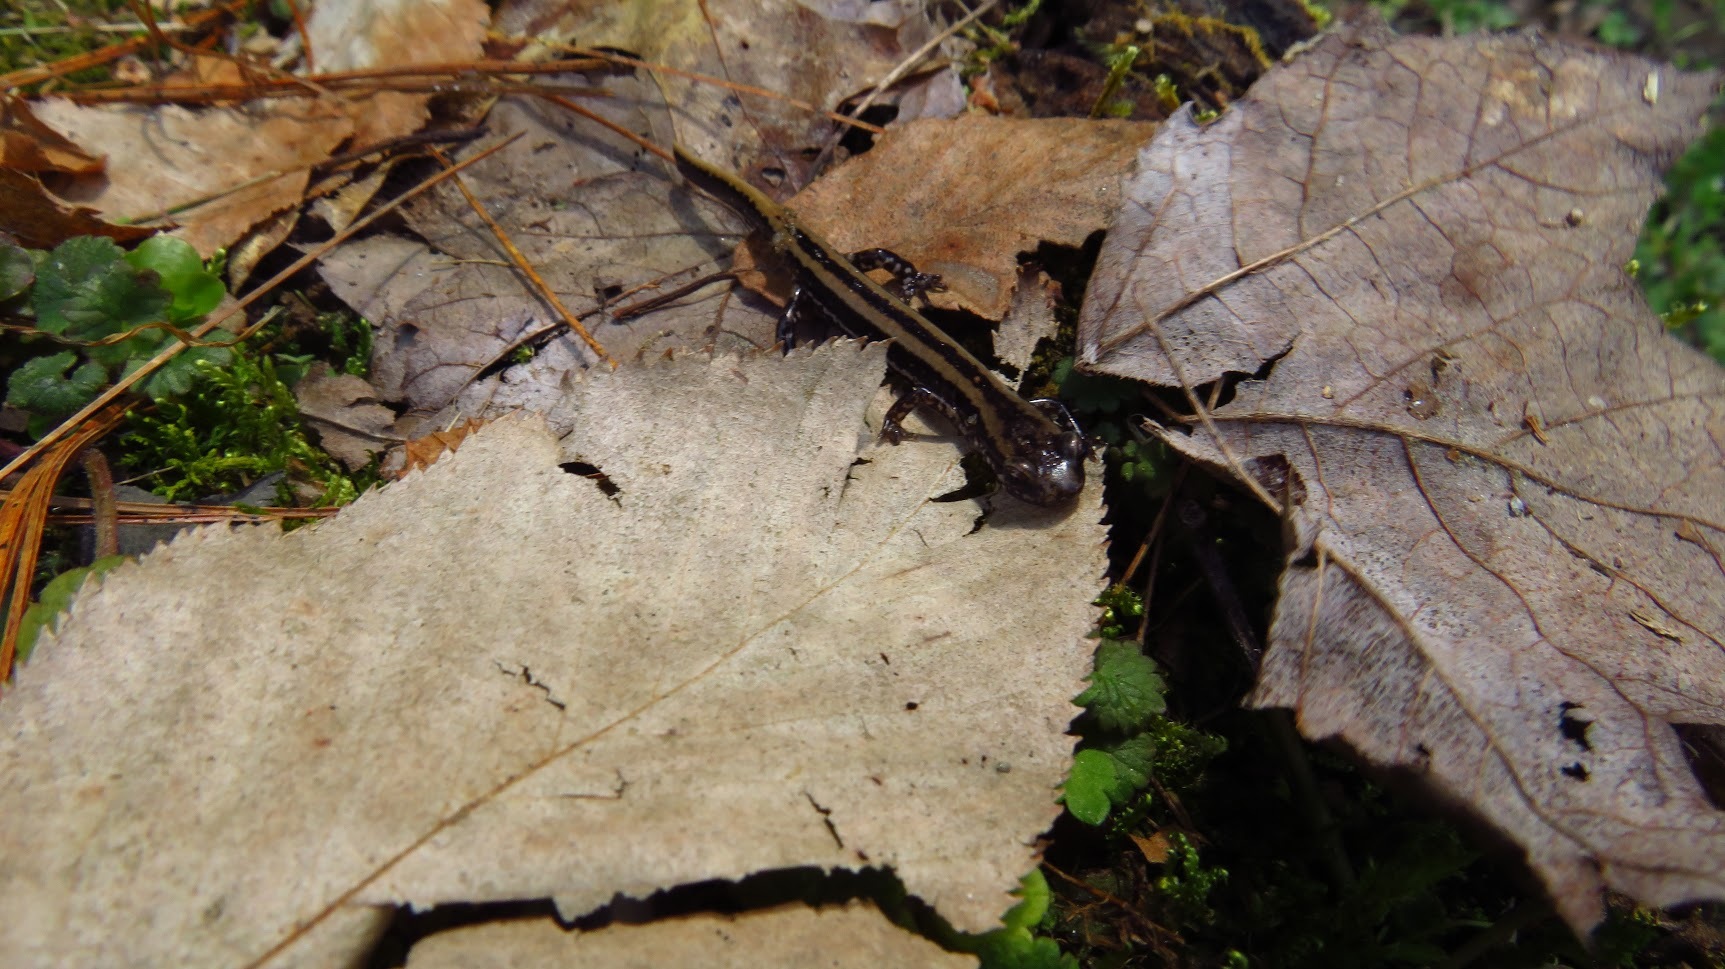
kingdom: Animalia
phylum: Chordata
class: Amphibia
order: Caudata
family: Plethodontidae
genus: Eurycea
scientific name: Eurycea guttolineata
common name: Three-lined salamander
